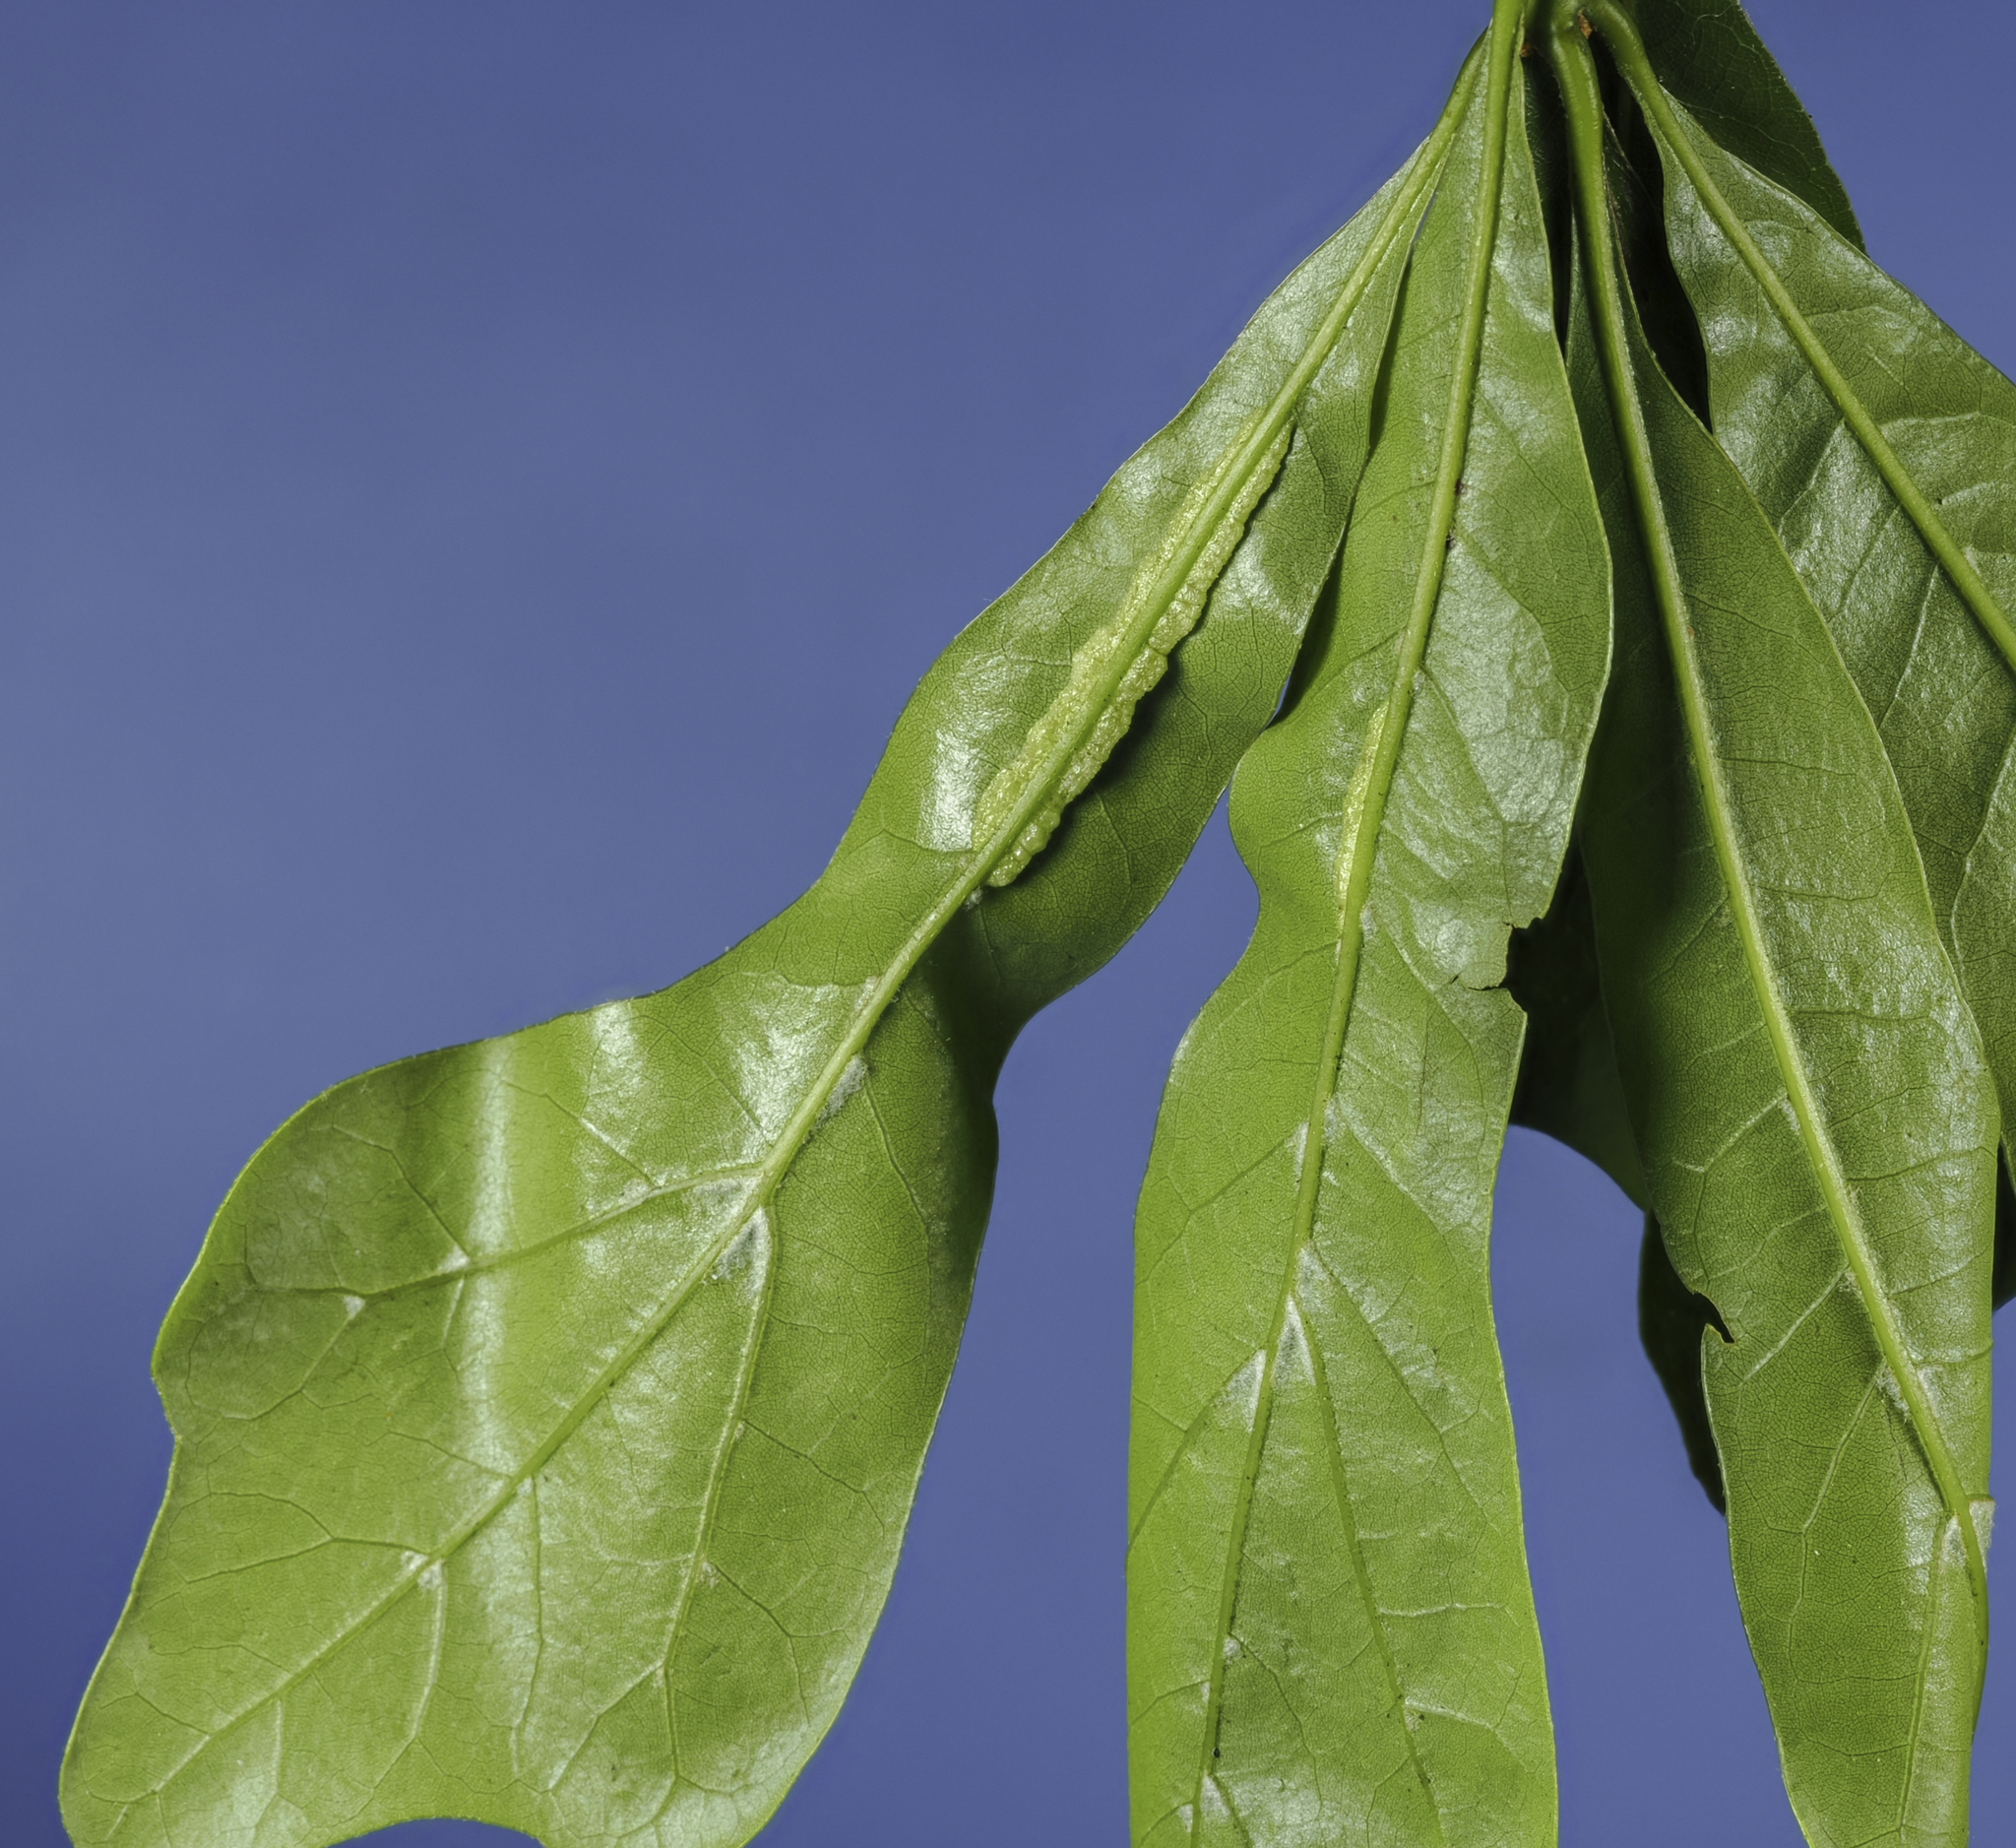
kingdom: Animalia
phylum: Arthropoda
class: Insecta
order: Diptera
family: Cecidomyiidae
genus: Macrodiplosis
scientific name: Macrodiplosis q-orucum
